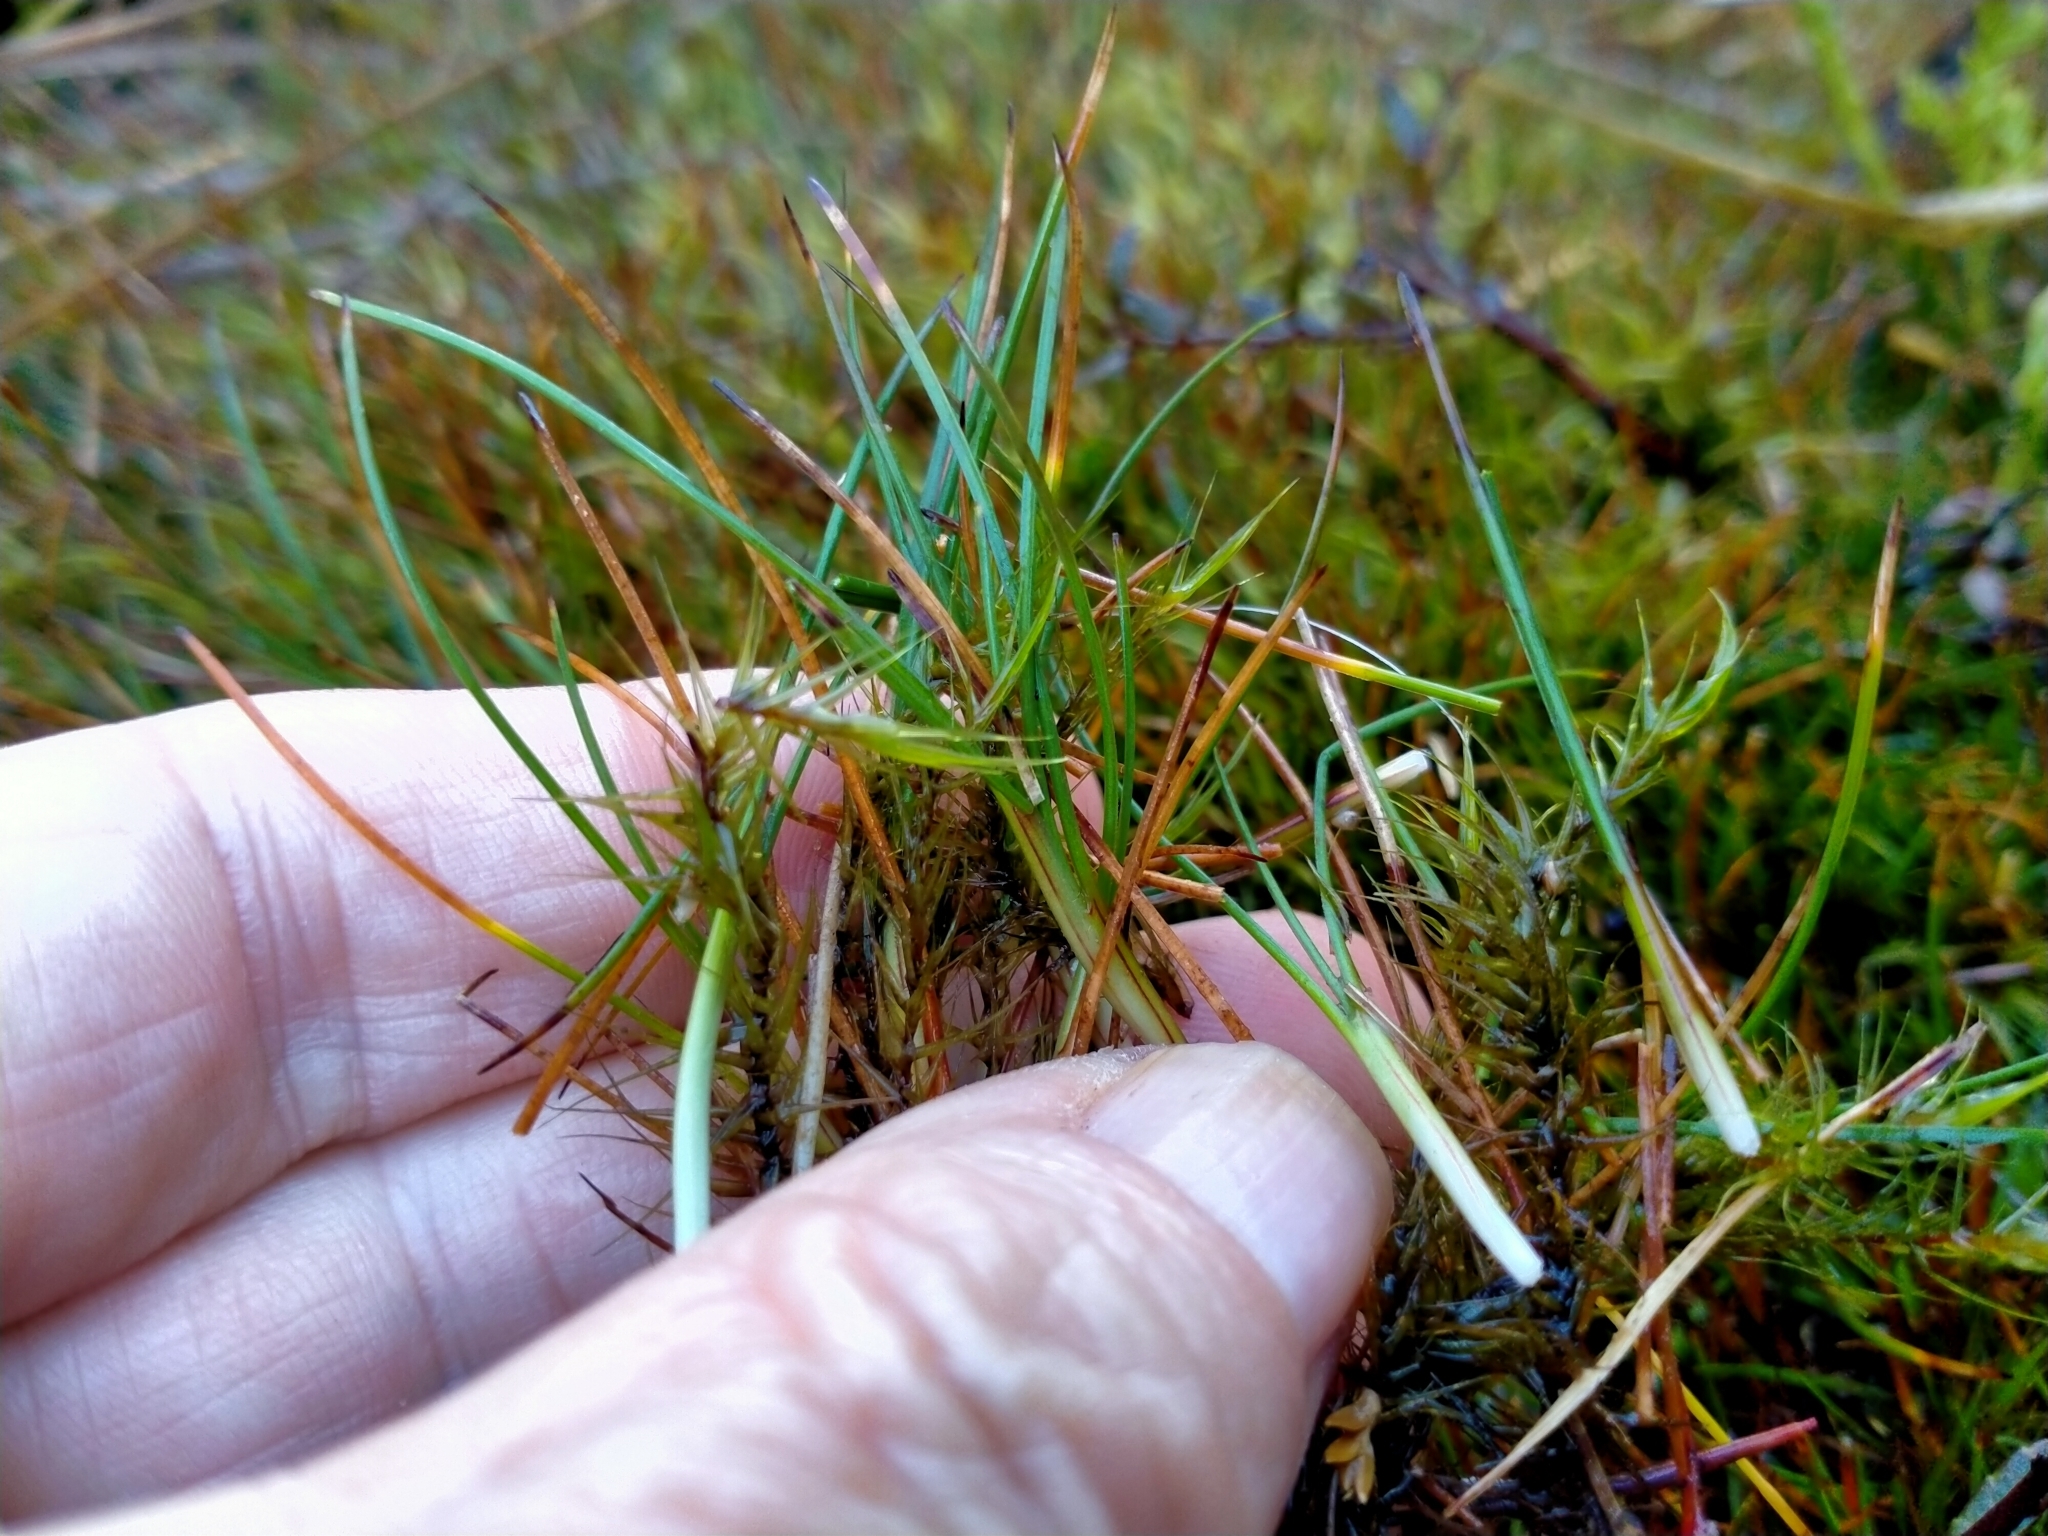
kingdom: Plantae
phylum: Tracheophyta
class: Liliopsida
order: Poales
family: Cyperaceae
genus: Oreobolus
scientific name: Oreobolus strictus
